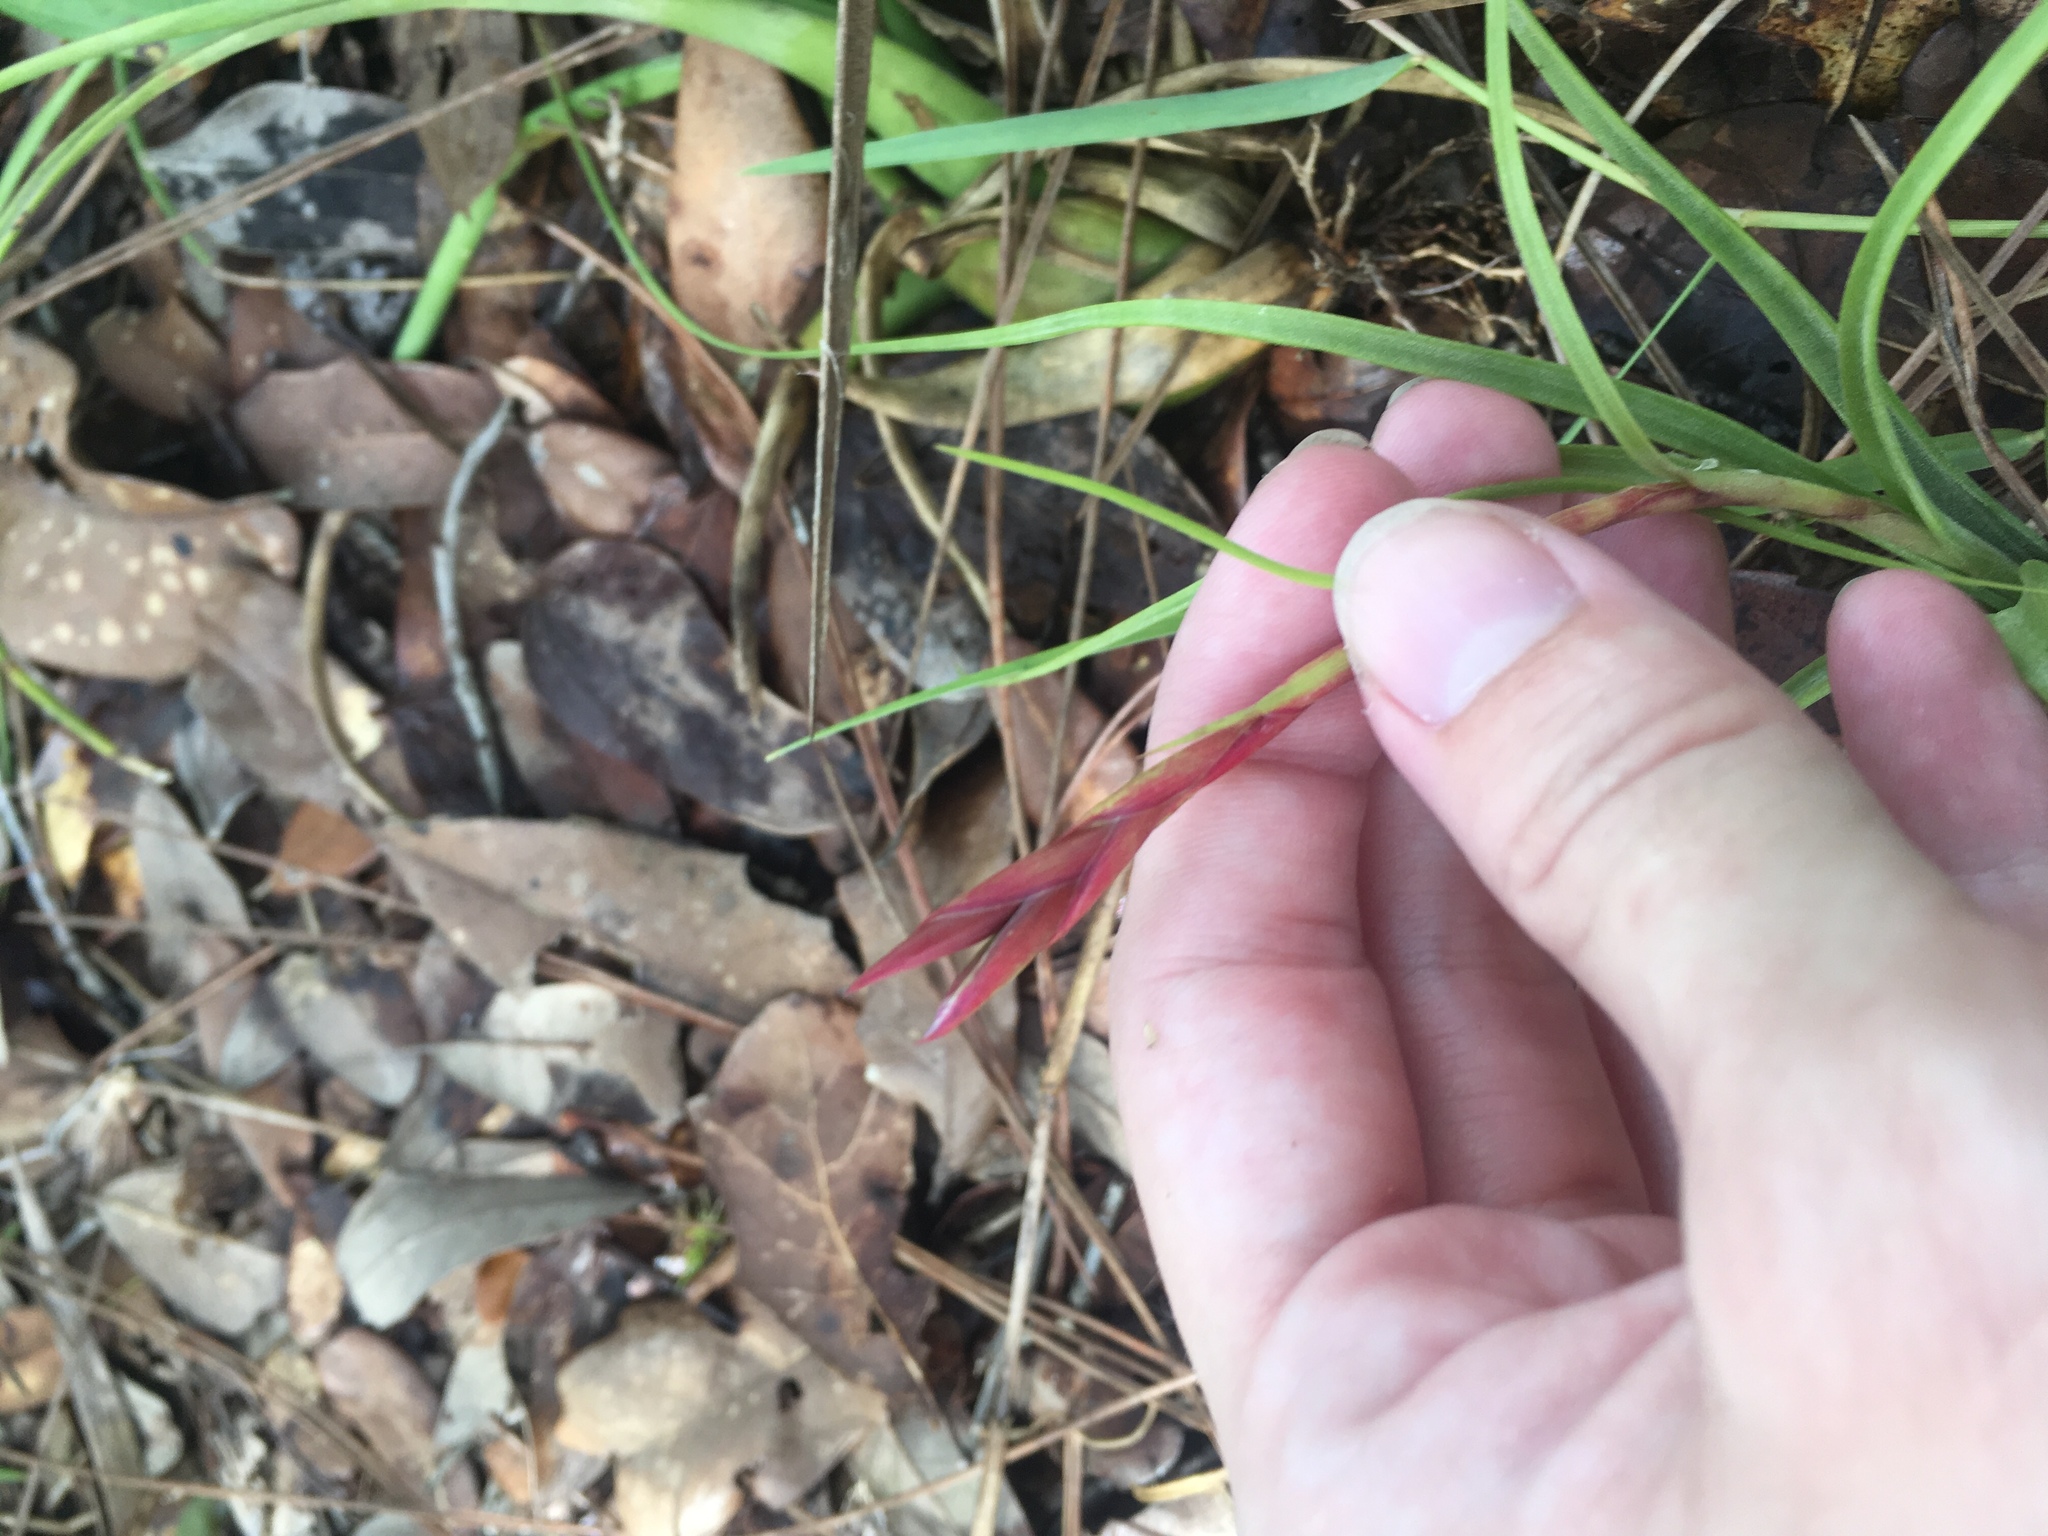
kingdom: Plantae
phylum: Tracheophyta
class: Liliopsida
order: Poales
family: Bromeliaceae
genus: Tillandsia
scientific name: Tillandsia balbisiana
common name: Northern needleleaf
